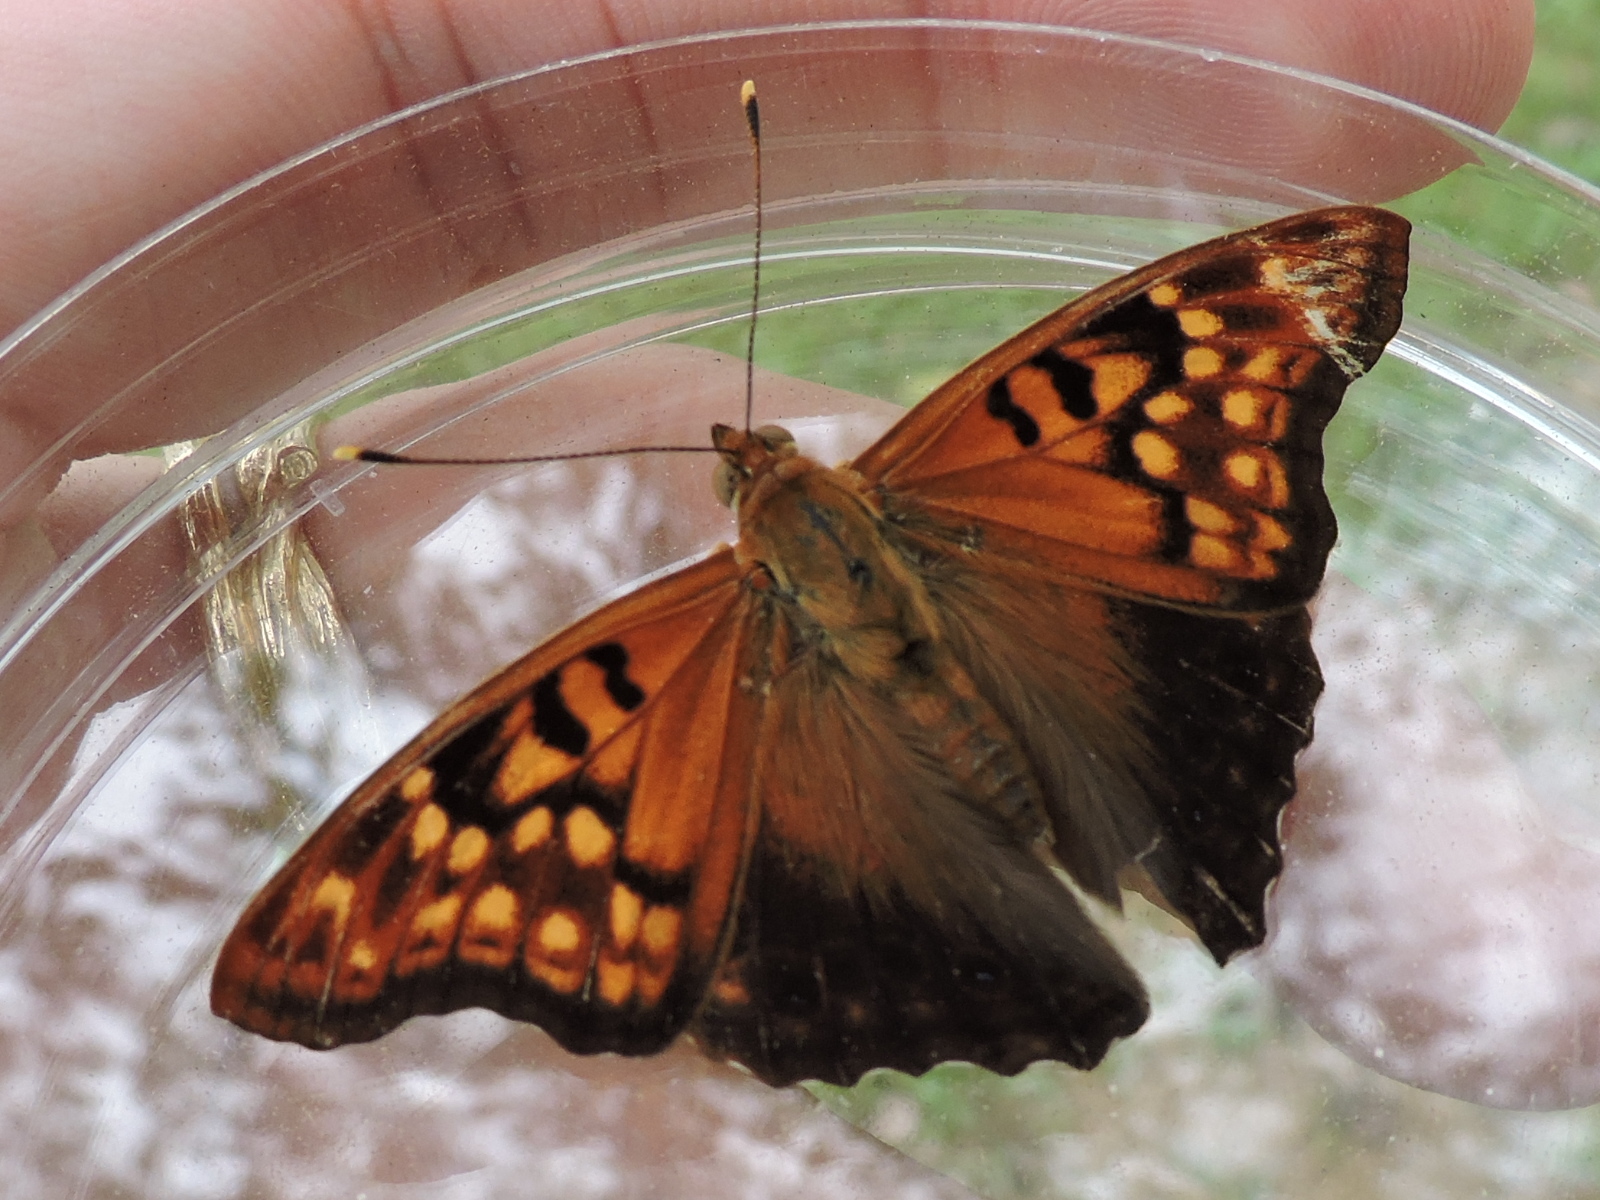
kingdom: Animalia
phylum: Arthropoda
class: Insecta
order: Lepidoptera
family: Nymphalidae
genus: Asterocampa
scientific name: Asterocampa clyton
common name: Tawny emperor
